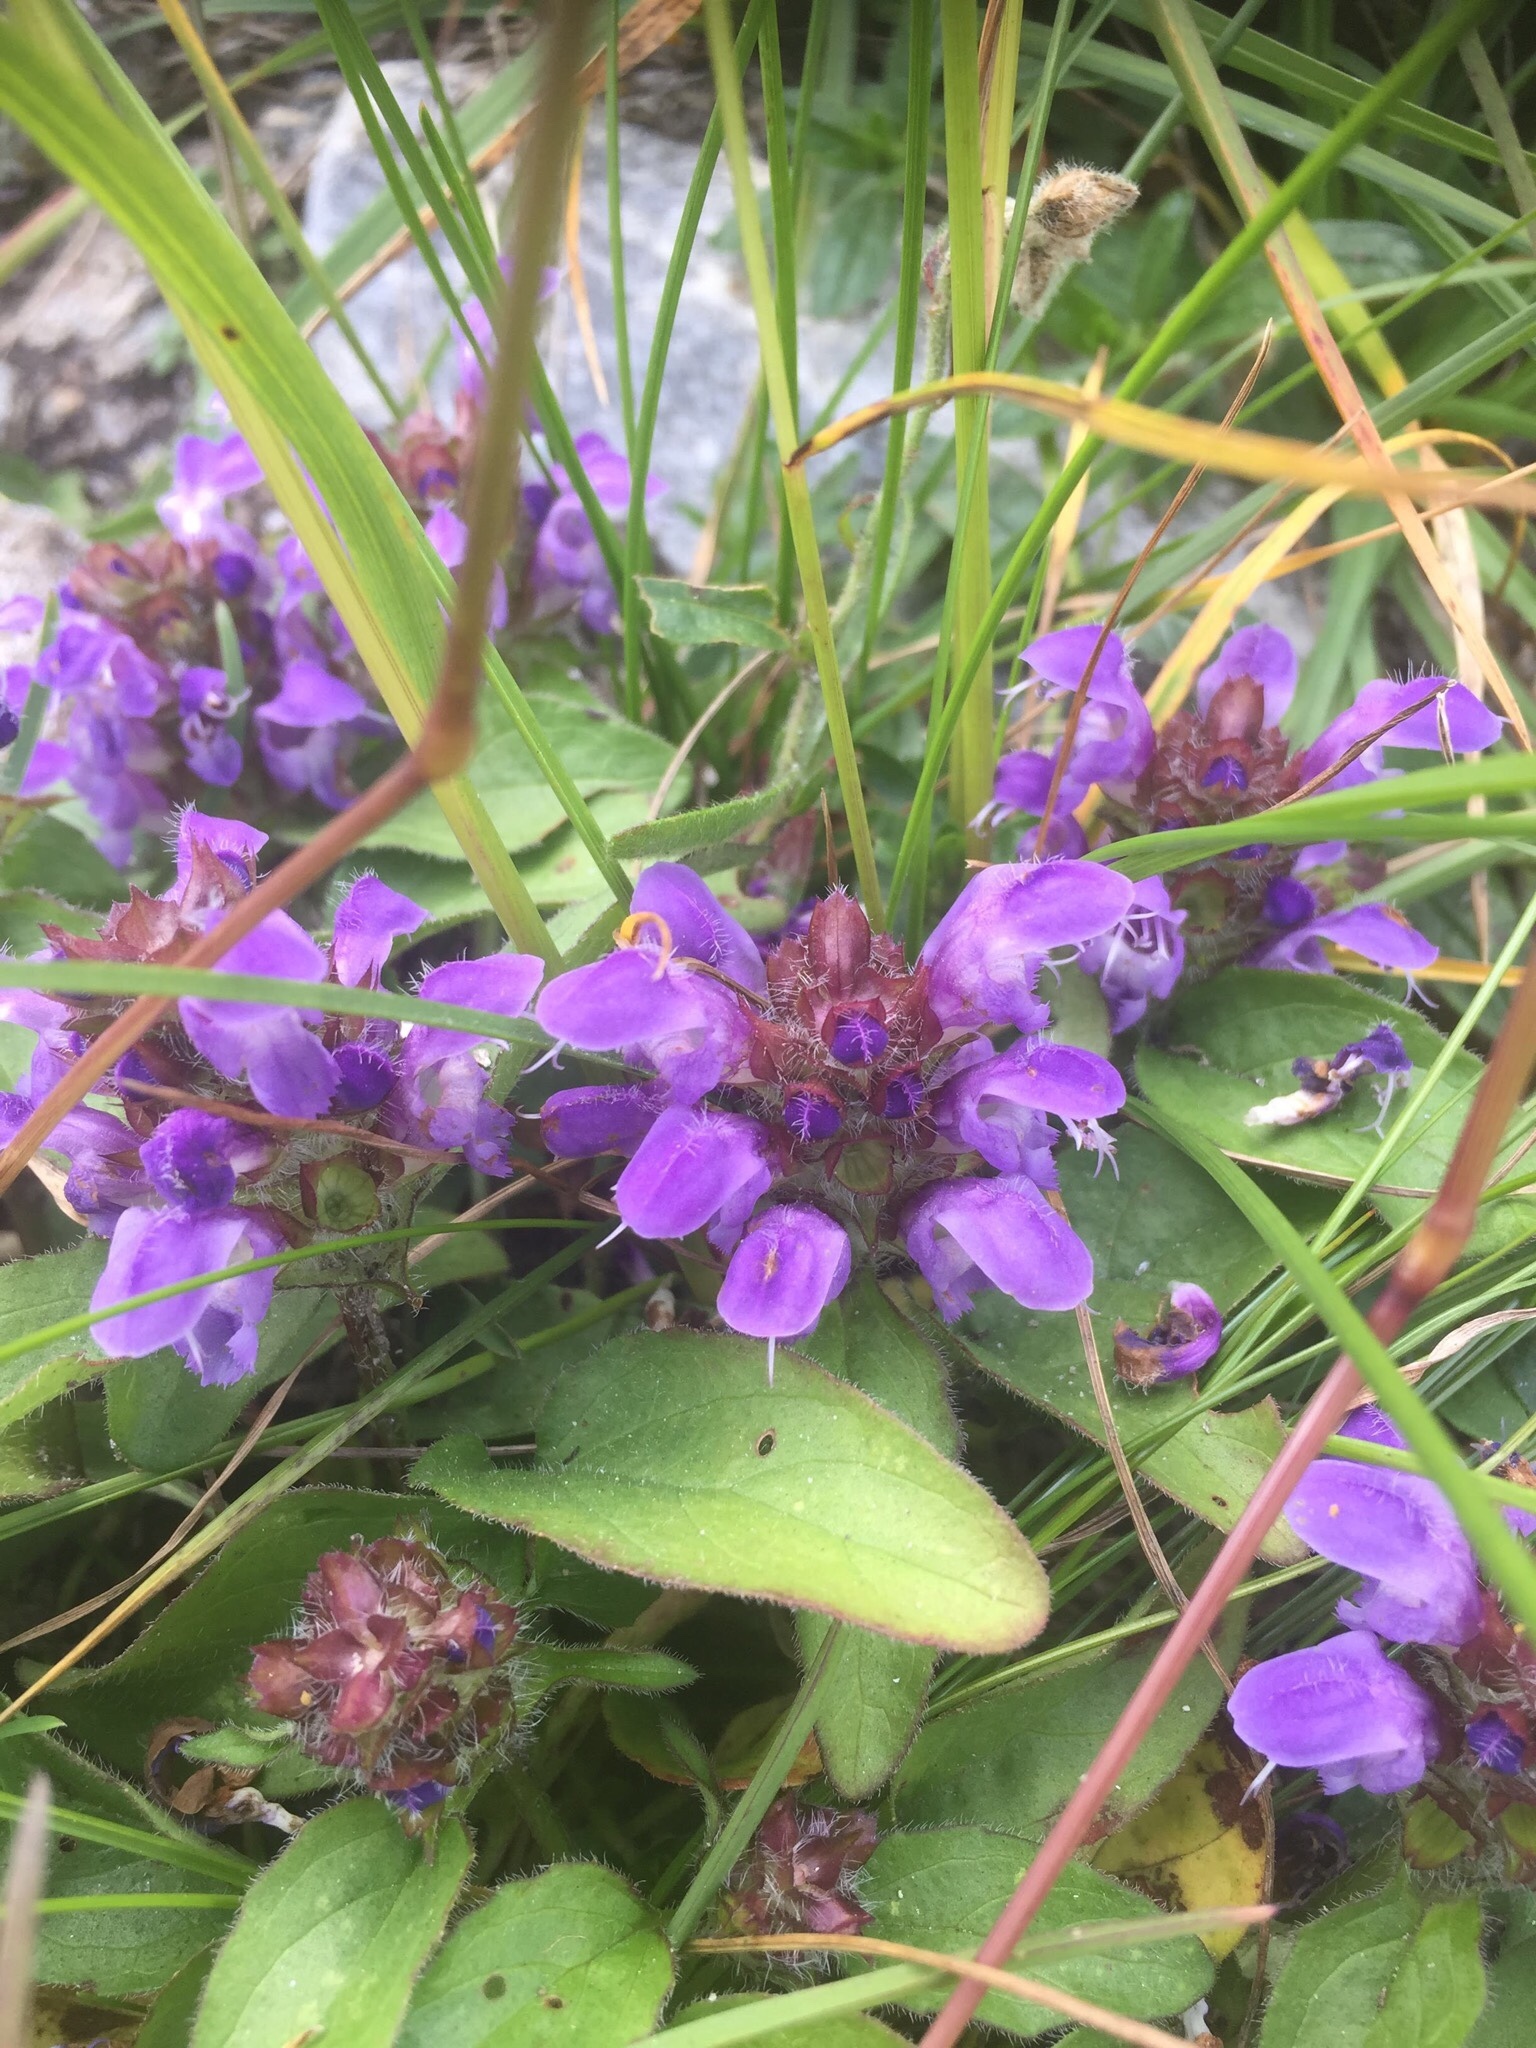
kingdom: Plantae
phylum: Tracheophyta
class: Magnoliopsida
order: Lamiales
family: Lamiaceae
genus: Prunella
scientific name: Prunella grandiflora
